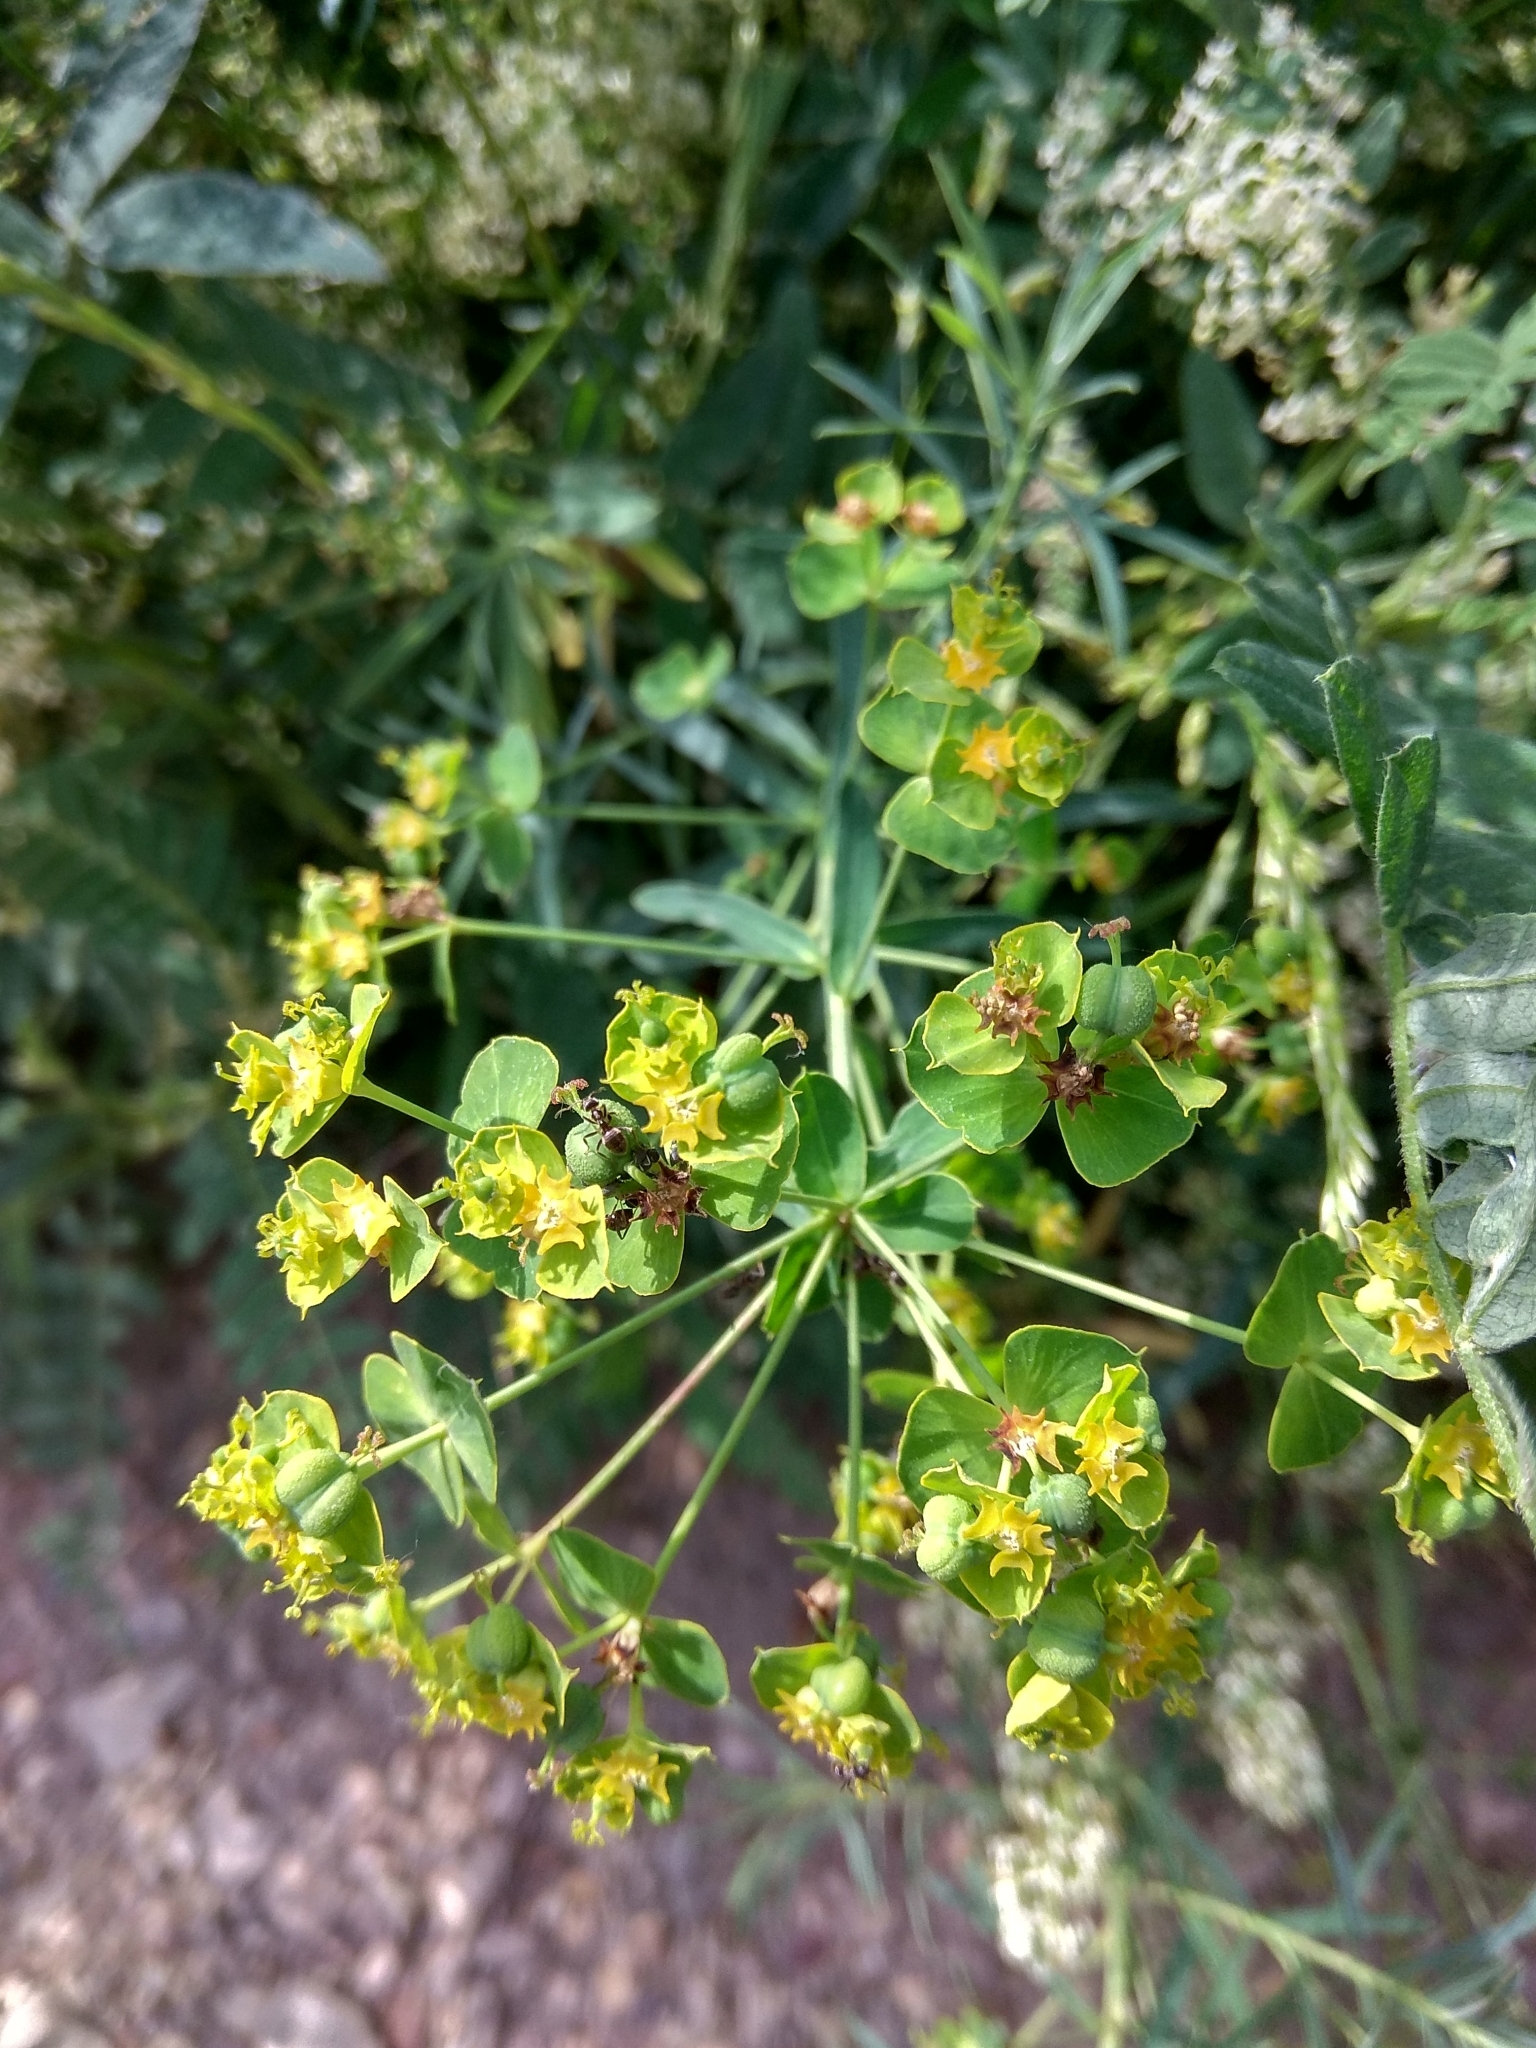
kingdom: Plantae
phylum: Tracheophyta
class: Magnoliopsida
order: Malpighiales
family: Euphorbiaceae
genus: Euphorbia
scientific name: Euphorbia virgata
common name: Leafy spurge
